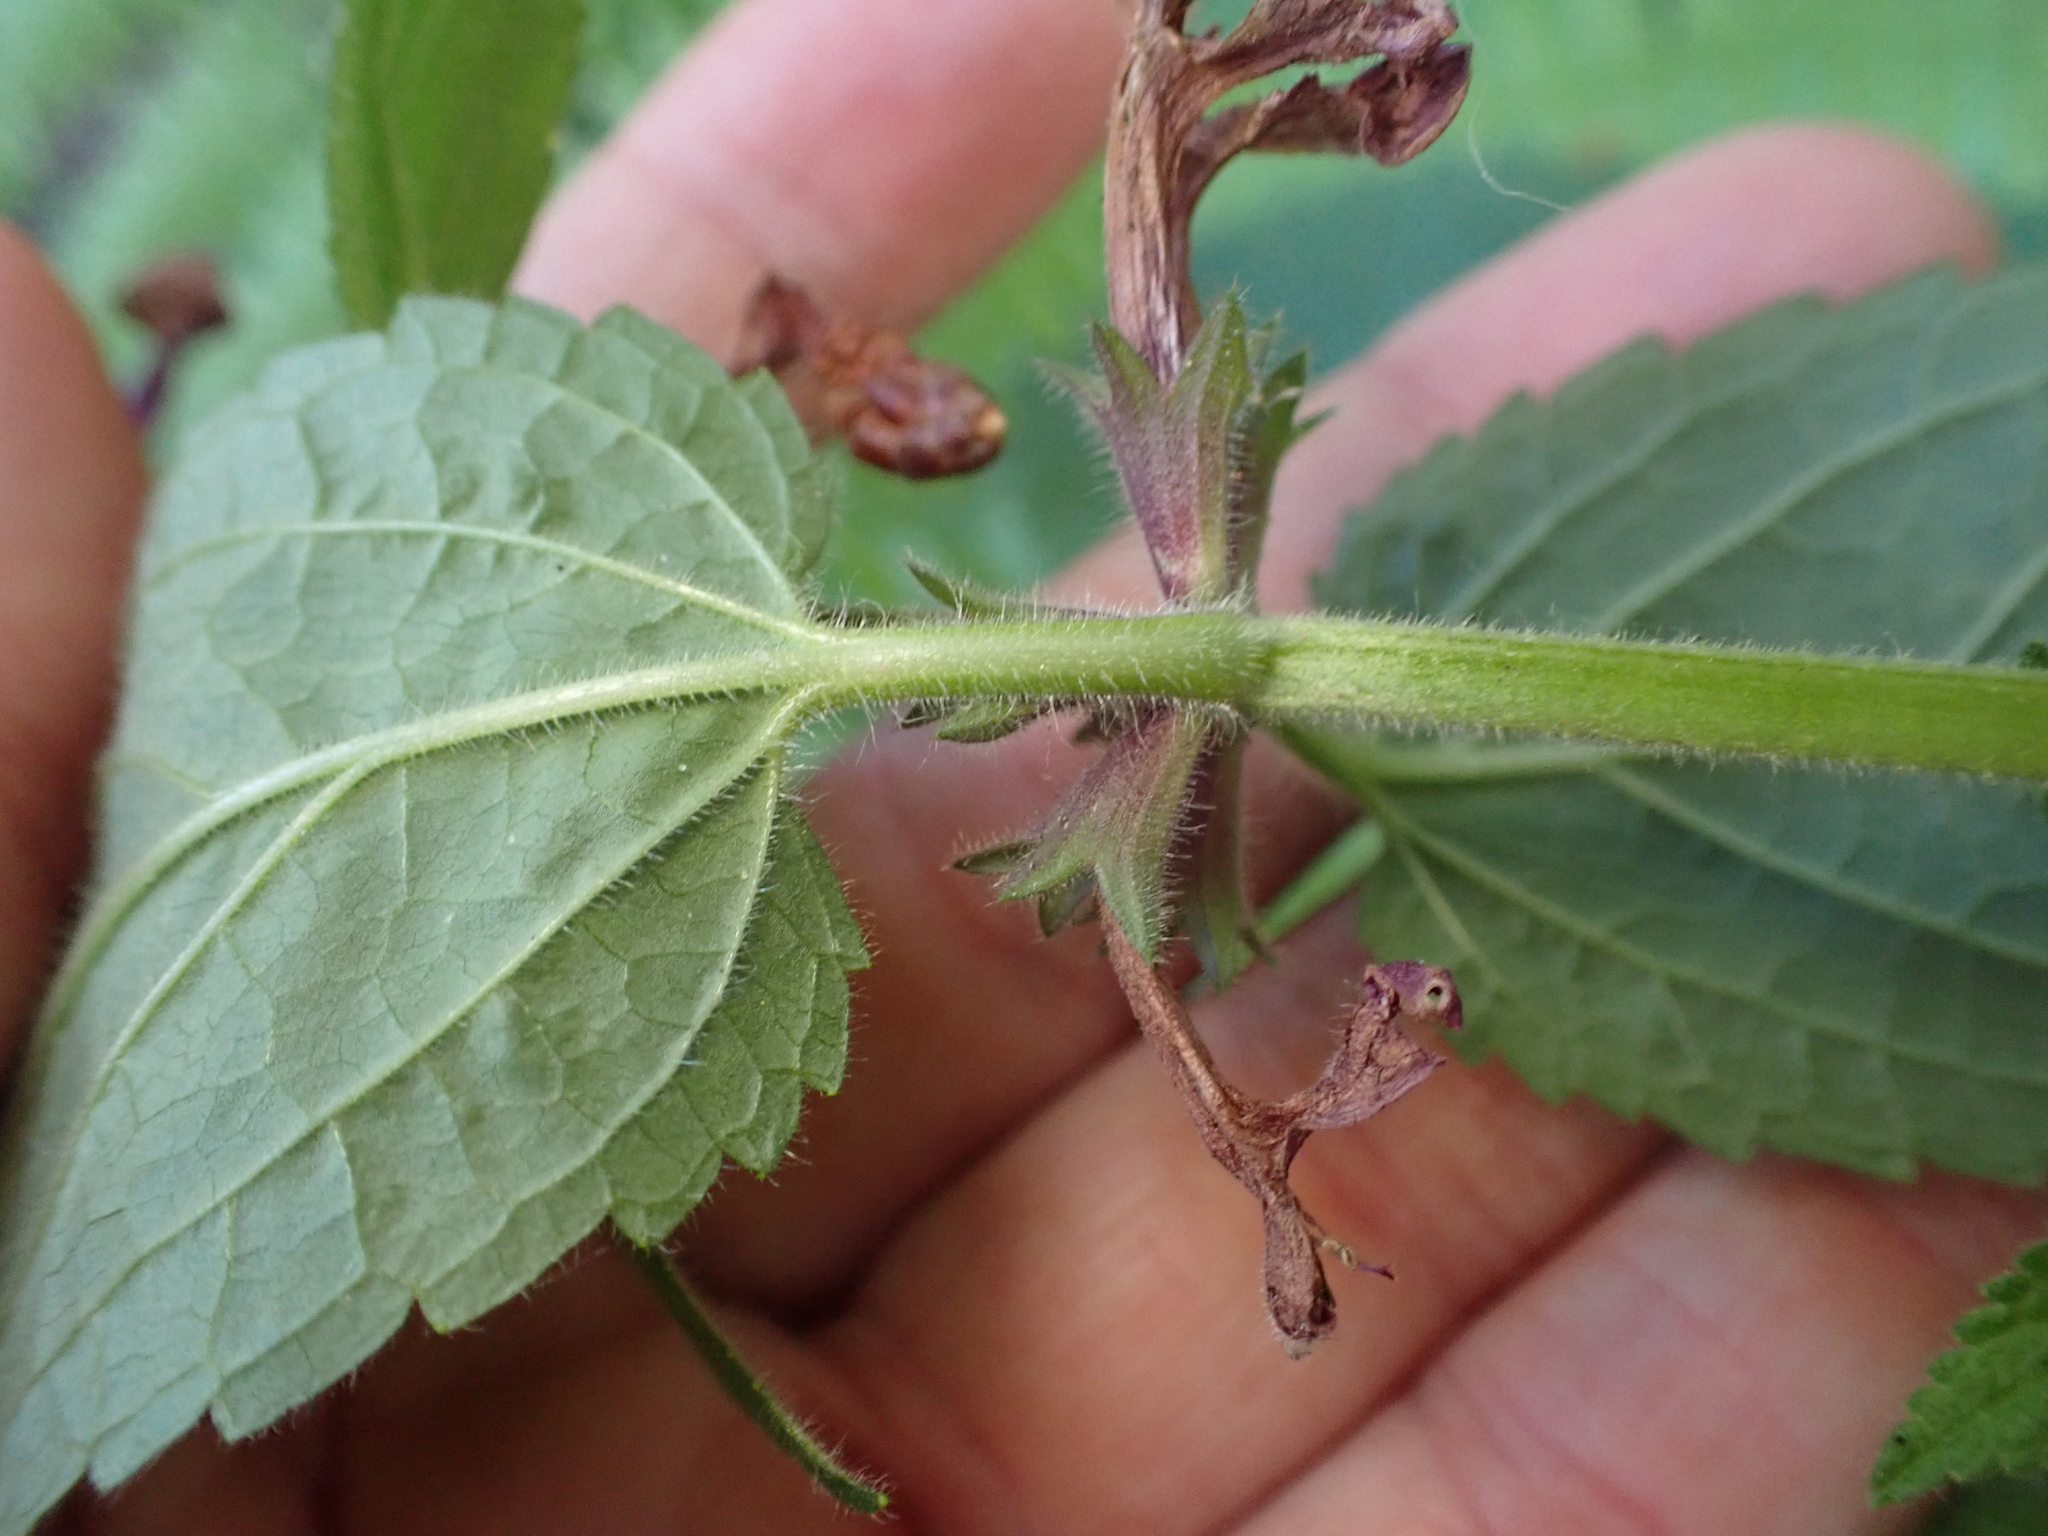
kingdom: Plantae
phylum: Tracheophyta
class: Magnoliopsida
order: Lamiales
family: Lamiaceae
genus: Stachys
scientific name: Stachys chamissonis
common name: Coastal hedge-nettle
